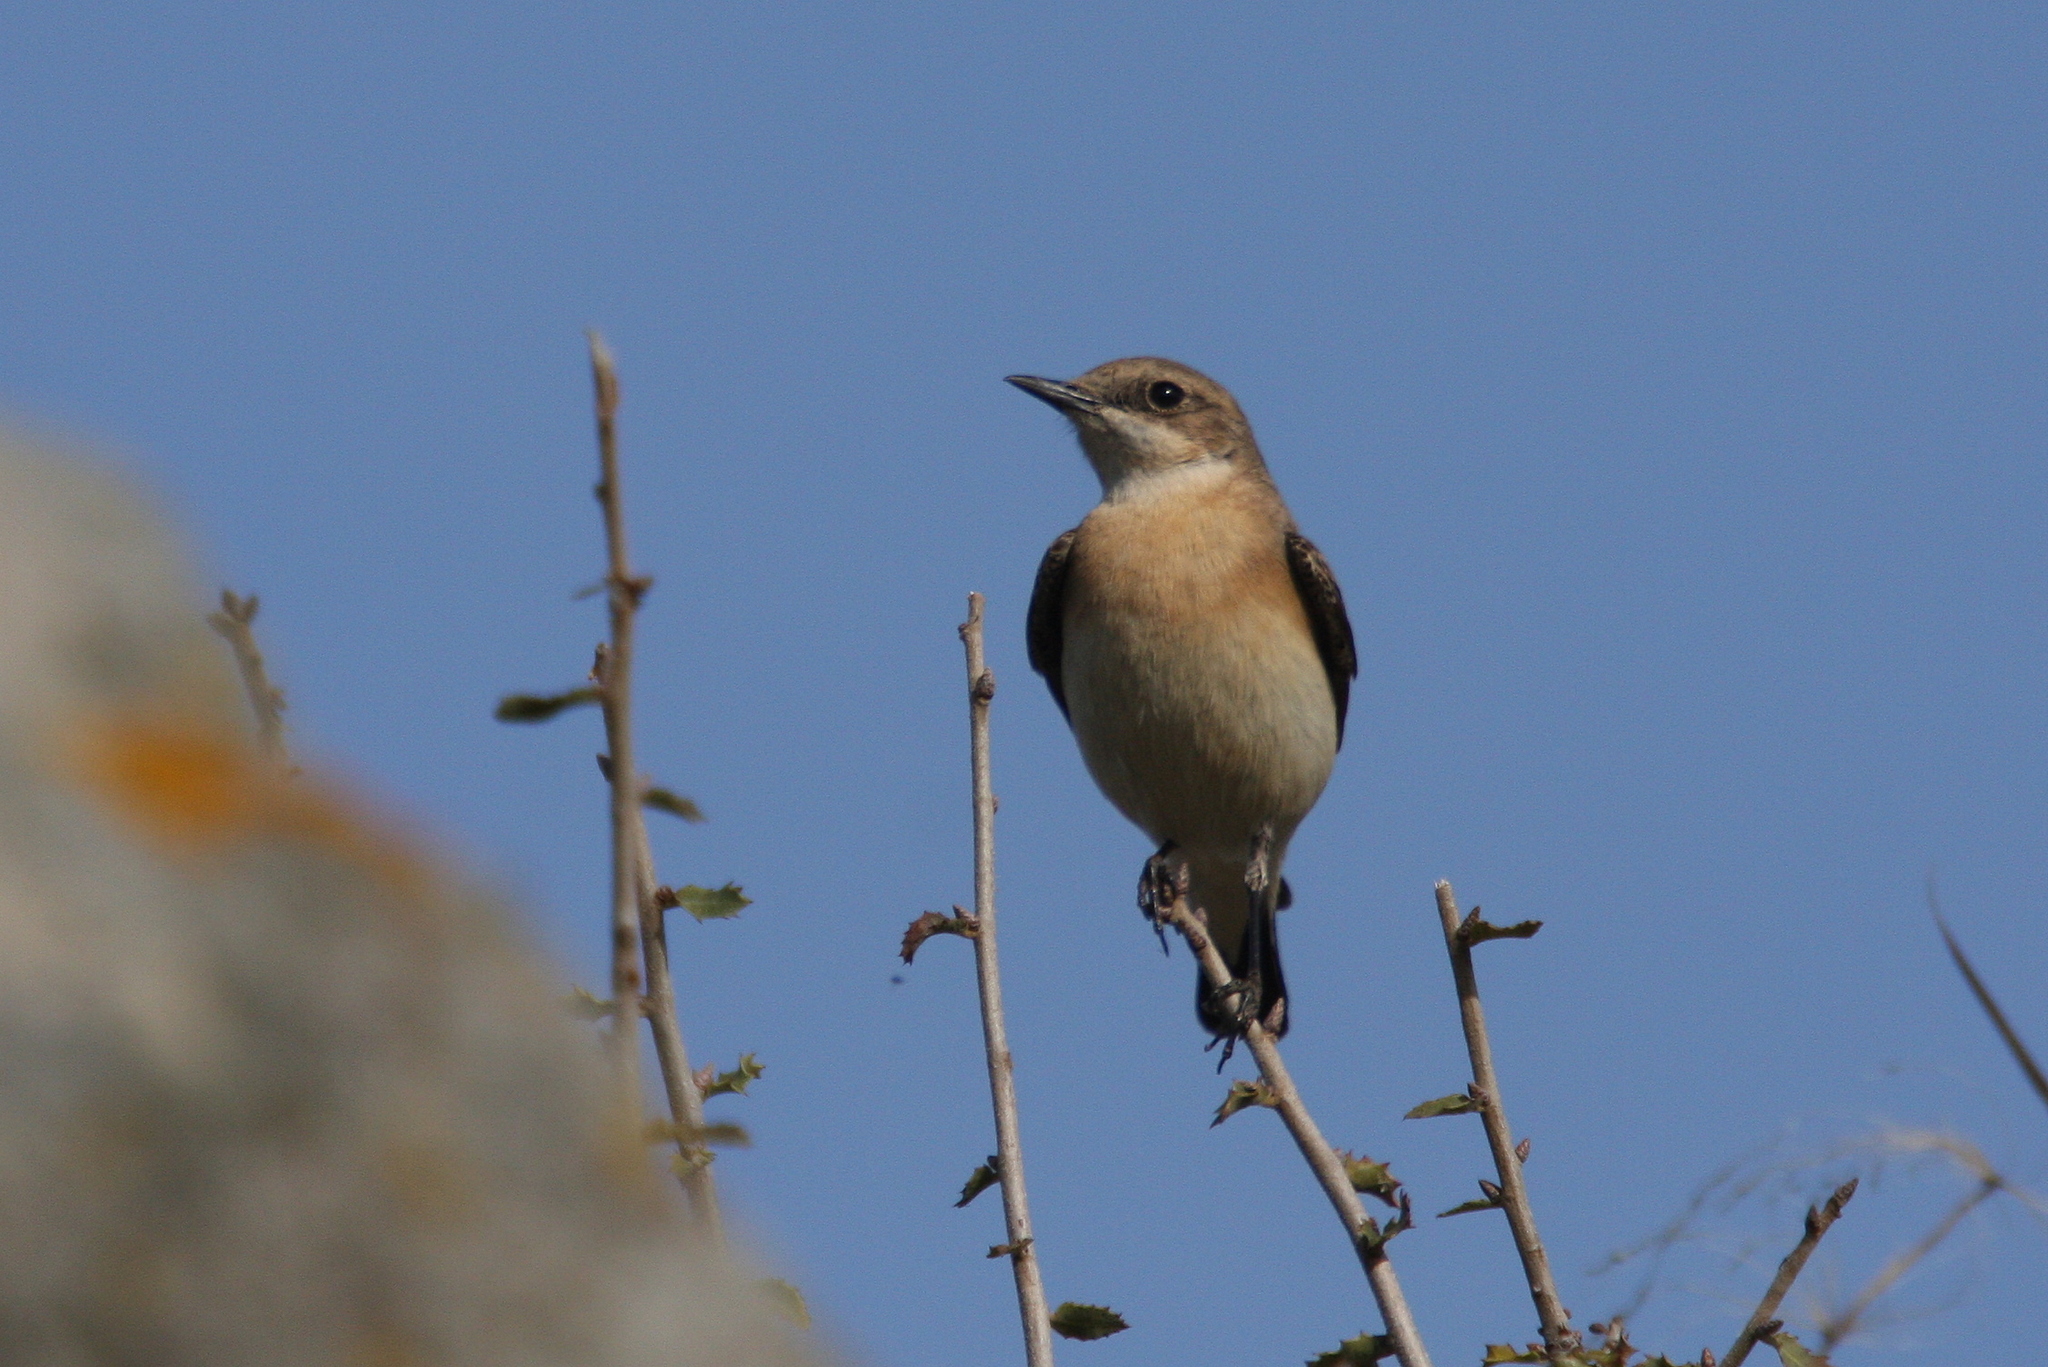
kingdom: Animalia
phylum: Chordata
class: Aves
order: Passeriformes
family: Muscicapidae
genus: Oenanthe
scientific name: Oenanthe hispanica
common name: Black-eared wheatear
